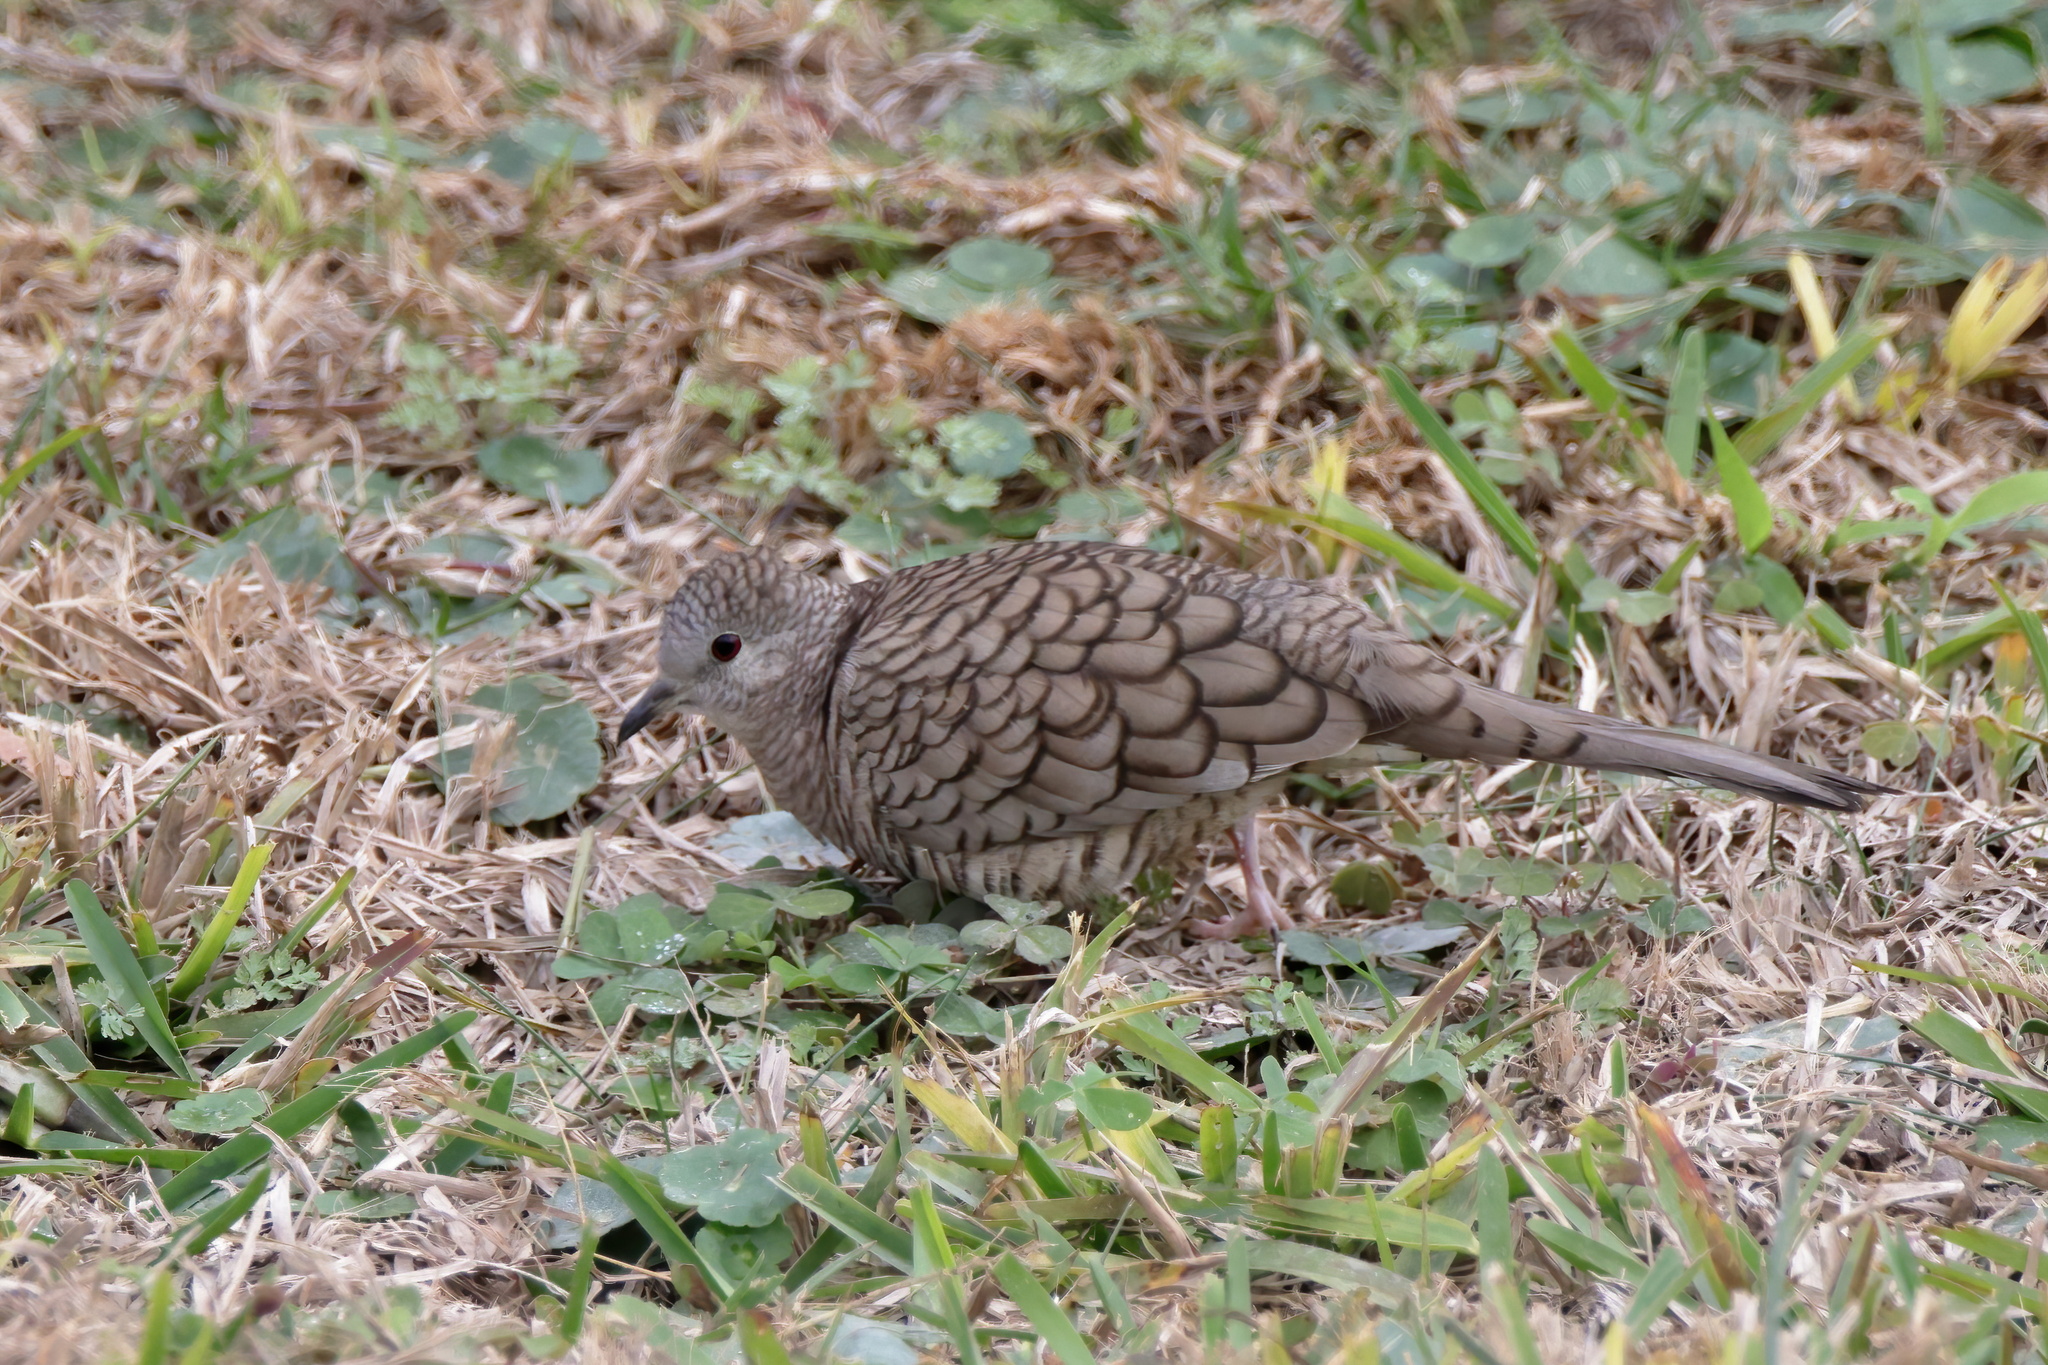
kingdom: Animalia
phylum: Chordata
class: Aves
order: Columbiformes
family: Columbidae
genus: Columbina
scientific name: Columbina inca
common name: Inca dove
